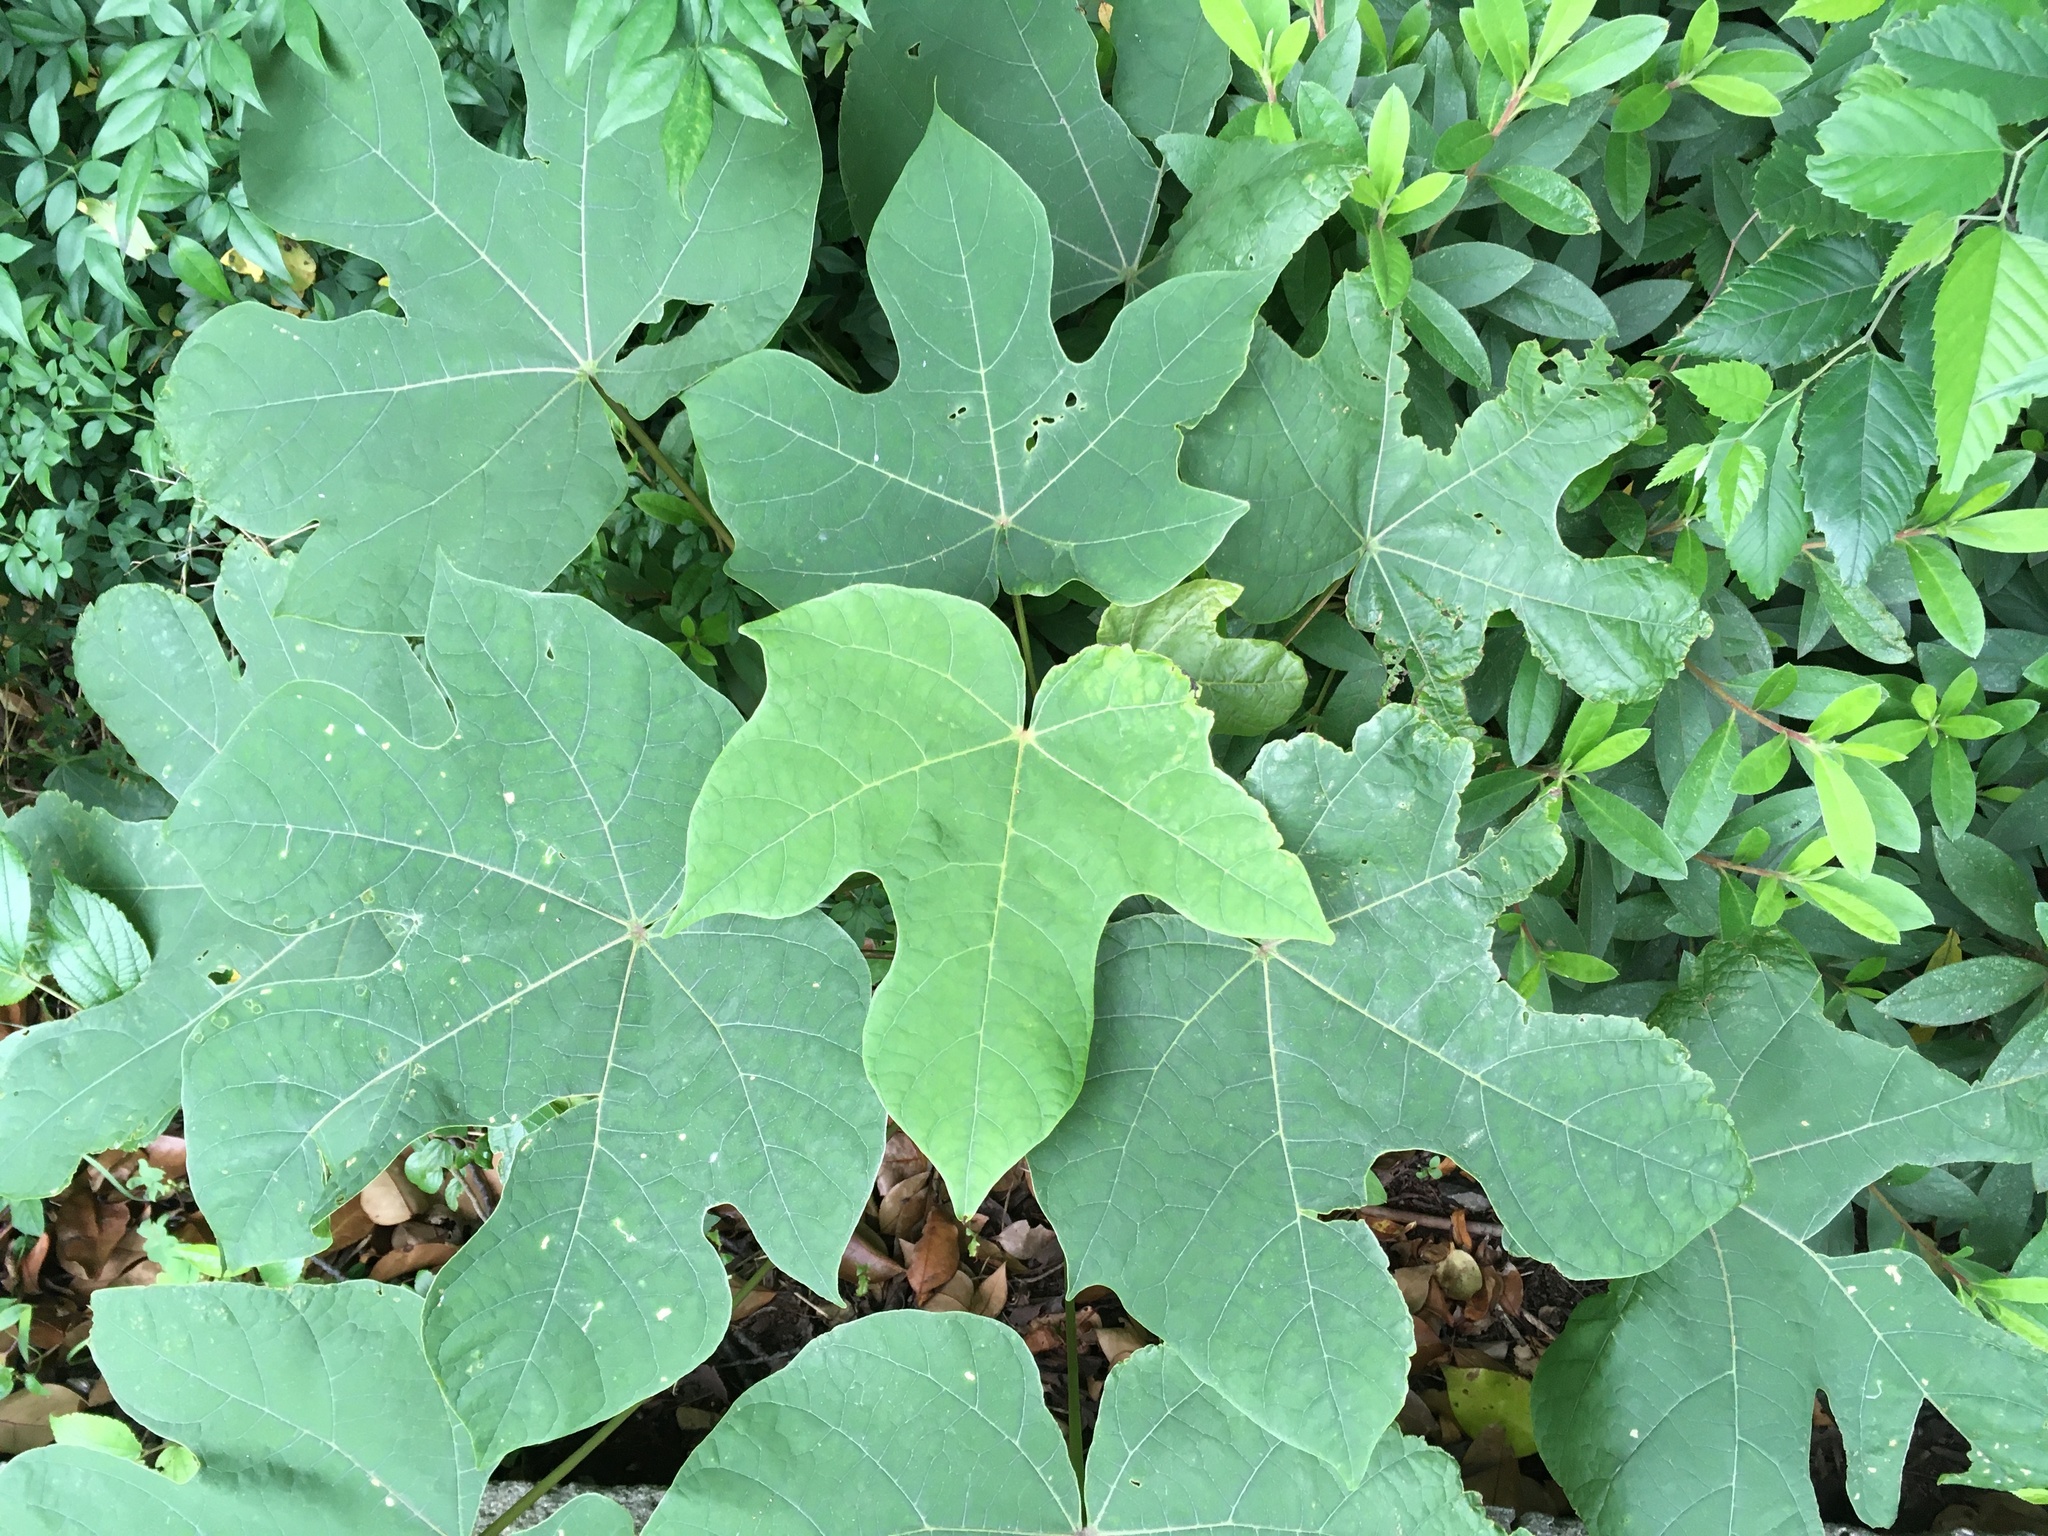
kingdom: Plantae
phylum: Tracheophyta
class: Magnoliopsida
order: Malvales
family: Malvaceae
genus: Firmiana
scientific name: Firmiana simplex
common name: Chinese parasoltree
